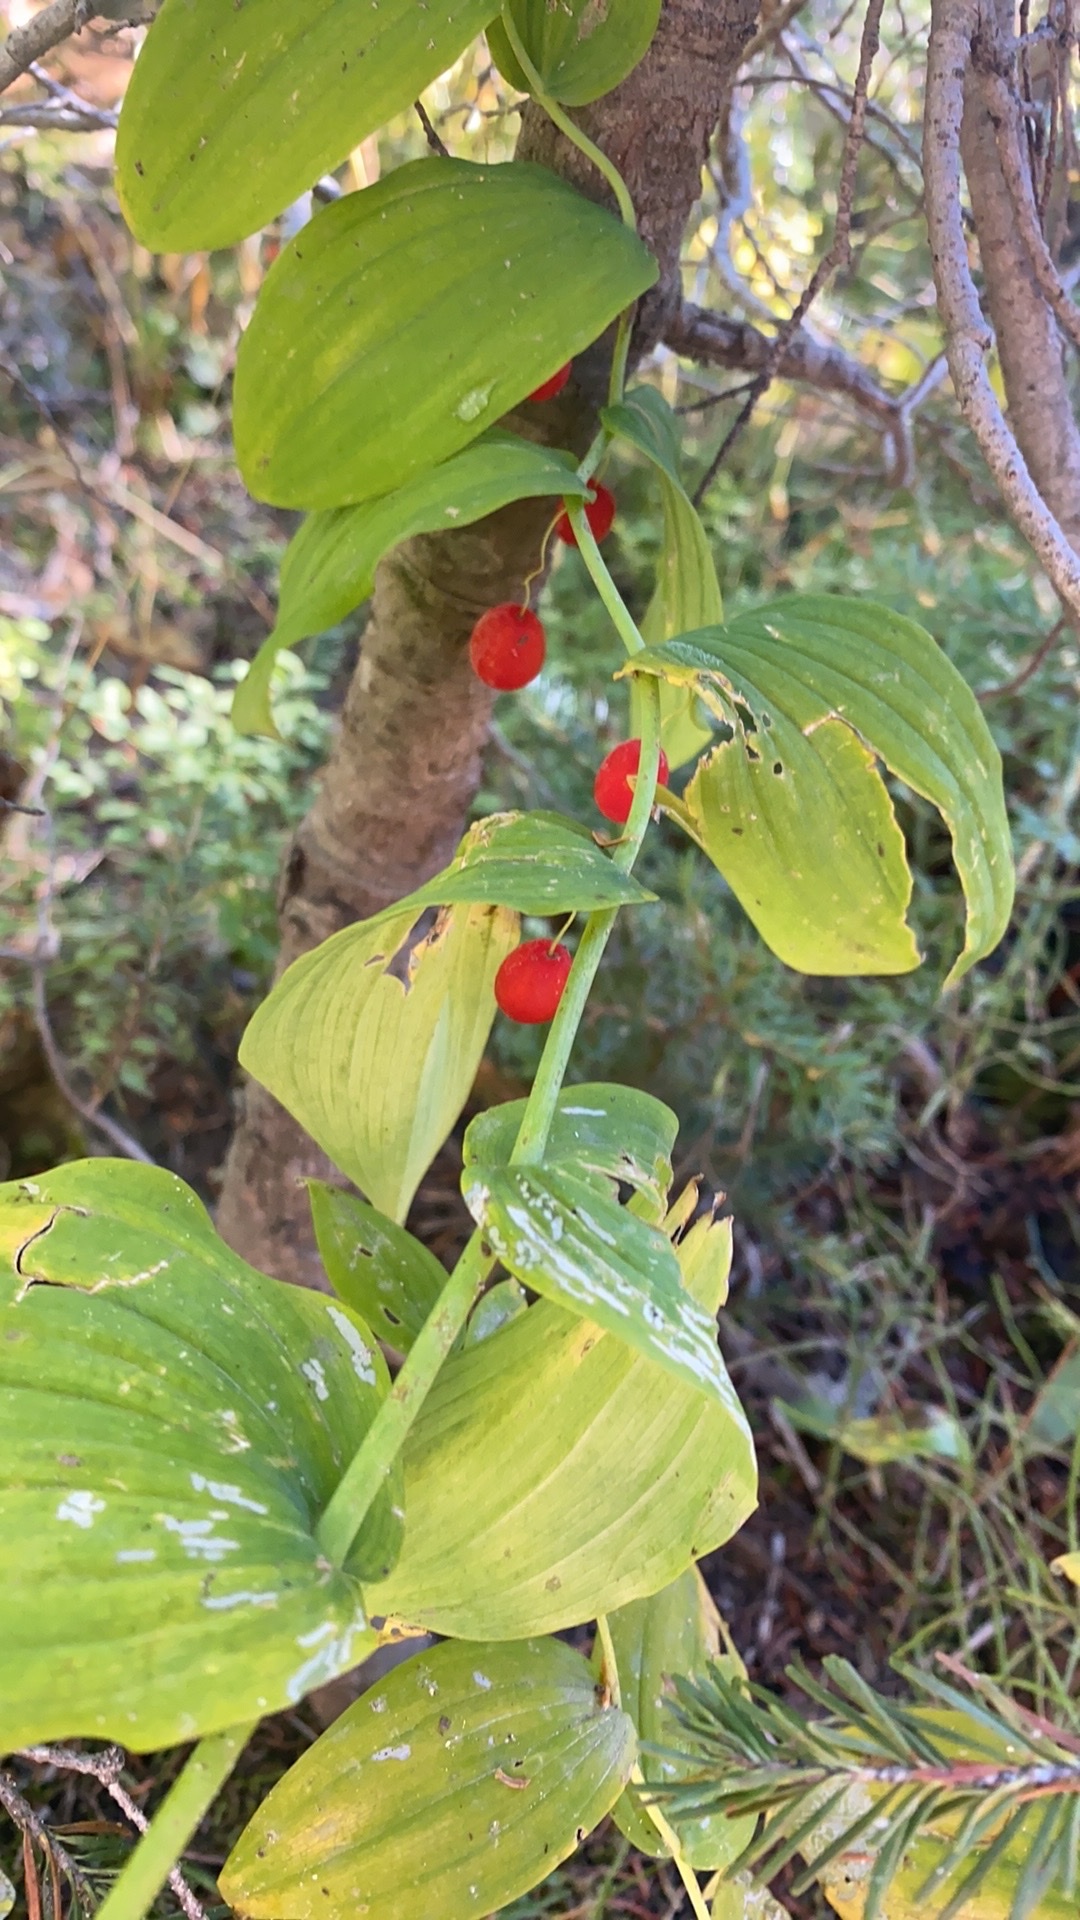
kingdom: Plantae
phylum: Tracheophyta
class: Liliopsida
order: Liliales
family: Liliaceae
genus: Streptopus
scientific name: Streptopus amplexifolius
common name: Clasp twisted stalk
